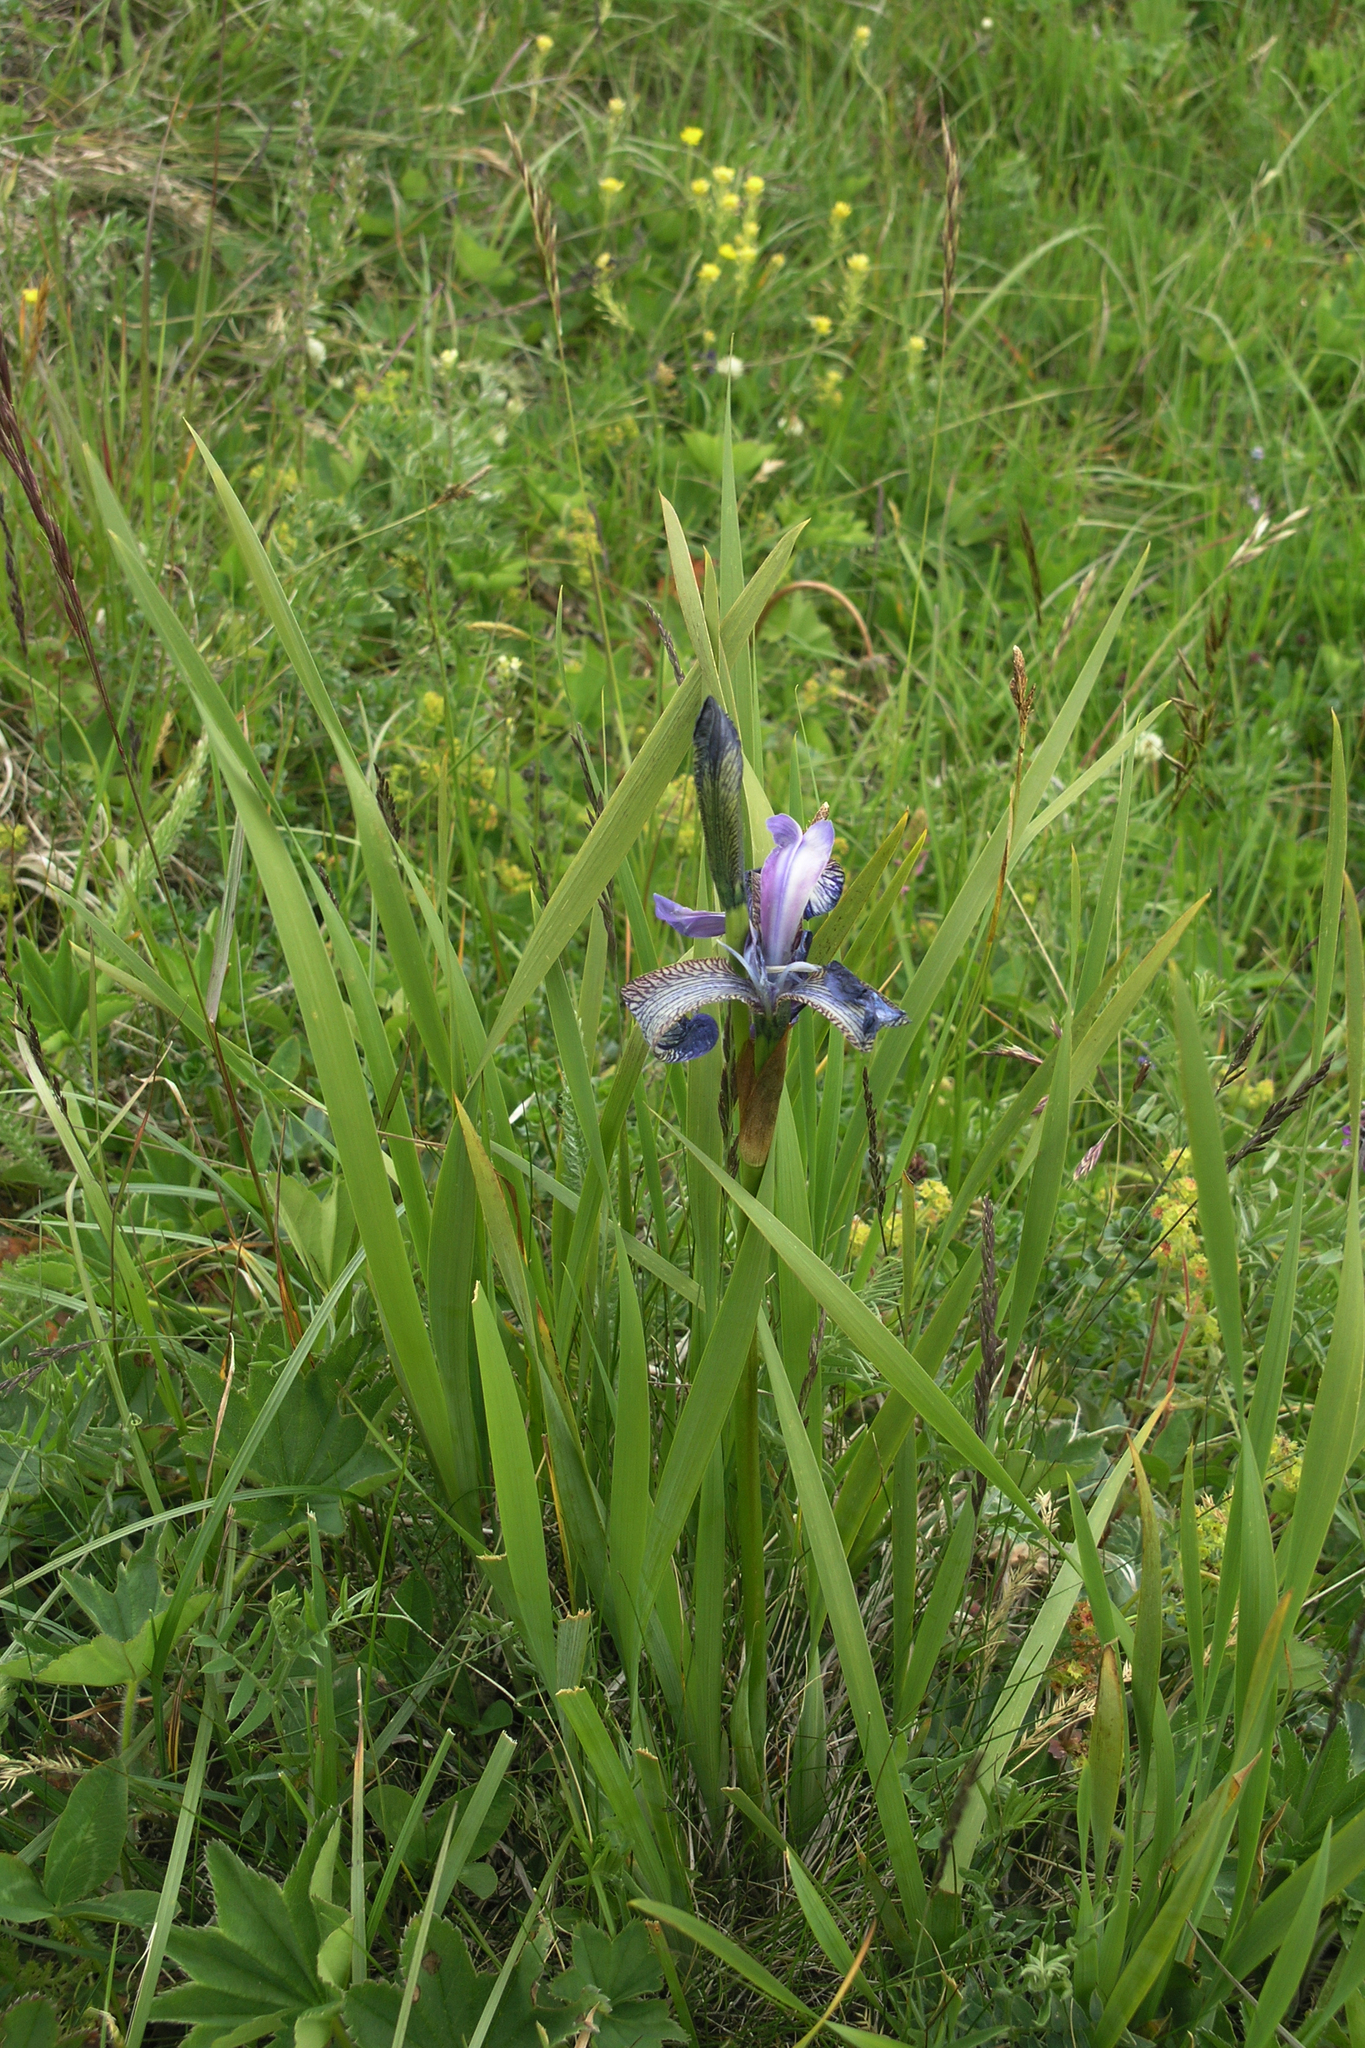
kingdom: Plantae
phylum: Tracheophyta
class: Liliopsida
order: Asparagales
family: Iridaceae
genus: Iris
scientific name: Iris sibirica
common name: Siberian iris
